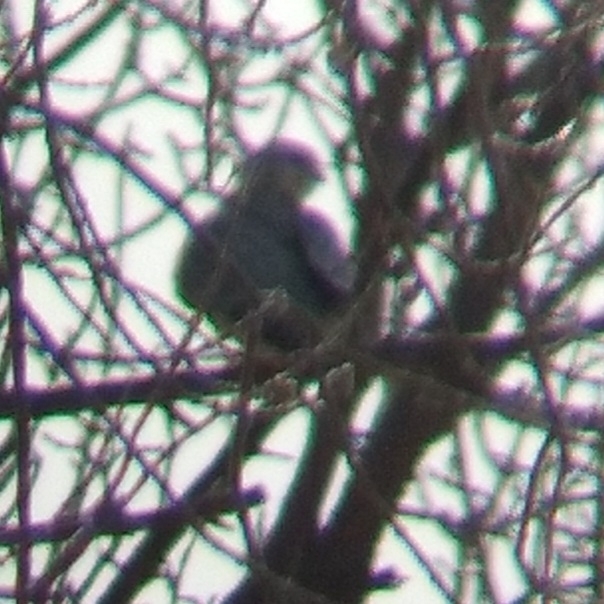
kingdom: Animalia
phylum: Chordata
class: Aves
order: Falconiformes
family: Falconidae
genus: Falco
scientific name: Falco columbarius
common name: Merlin
